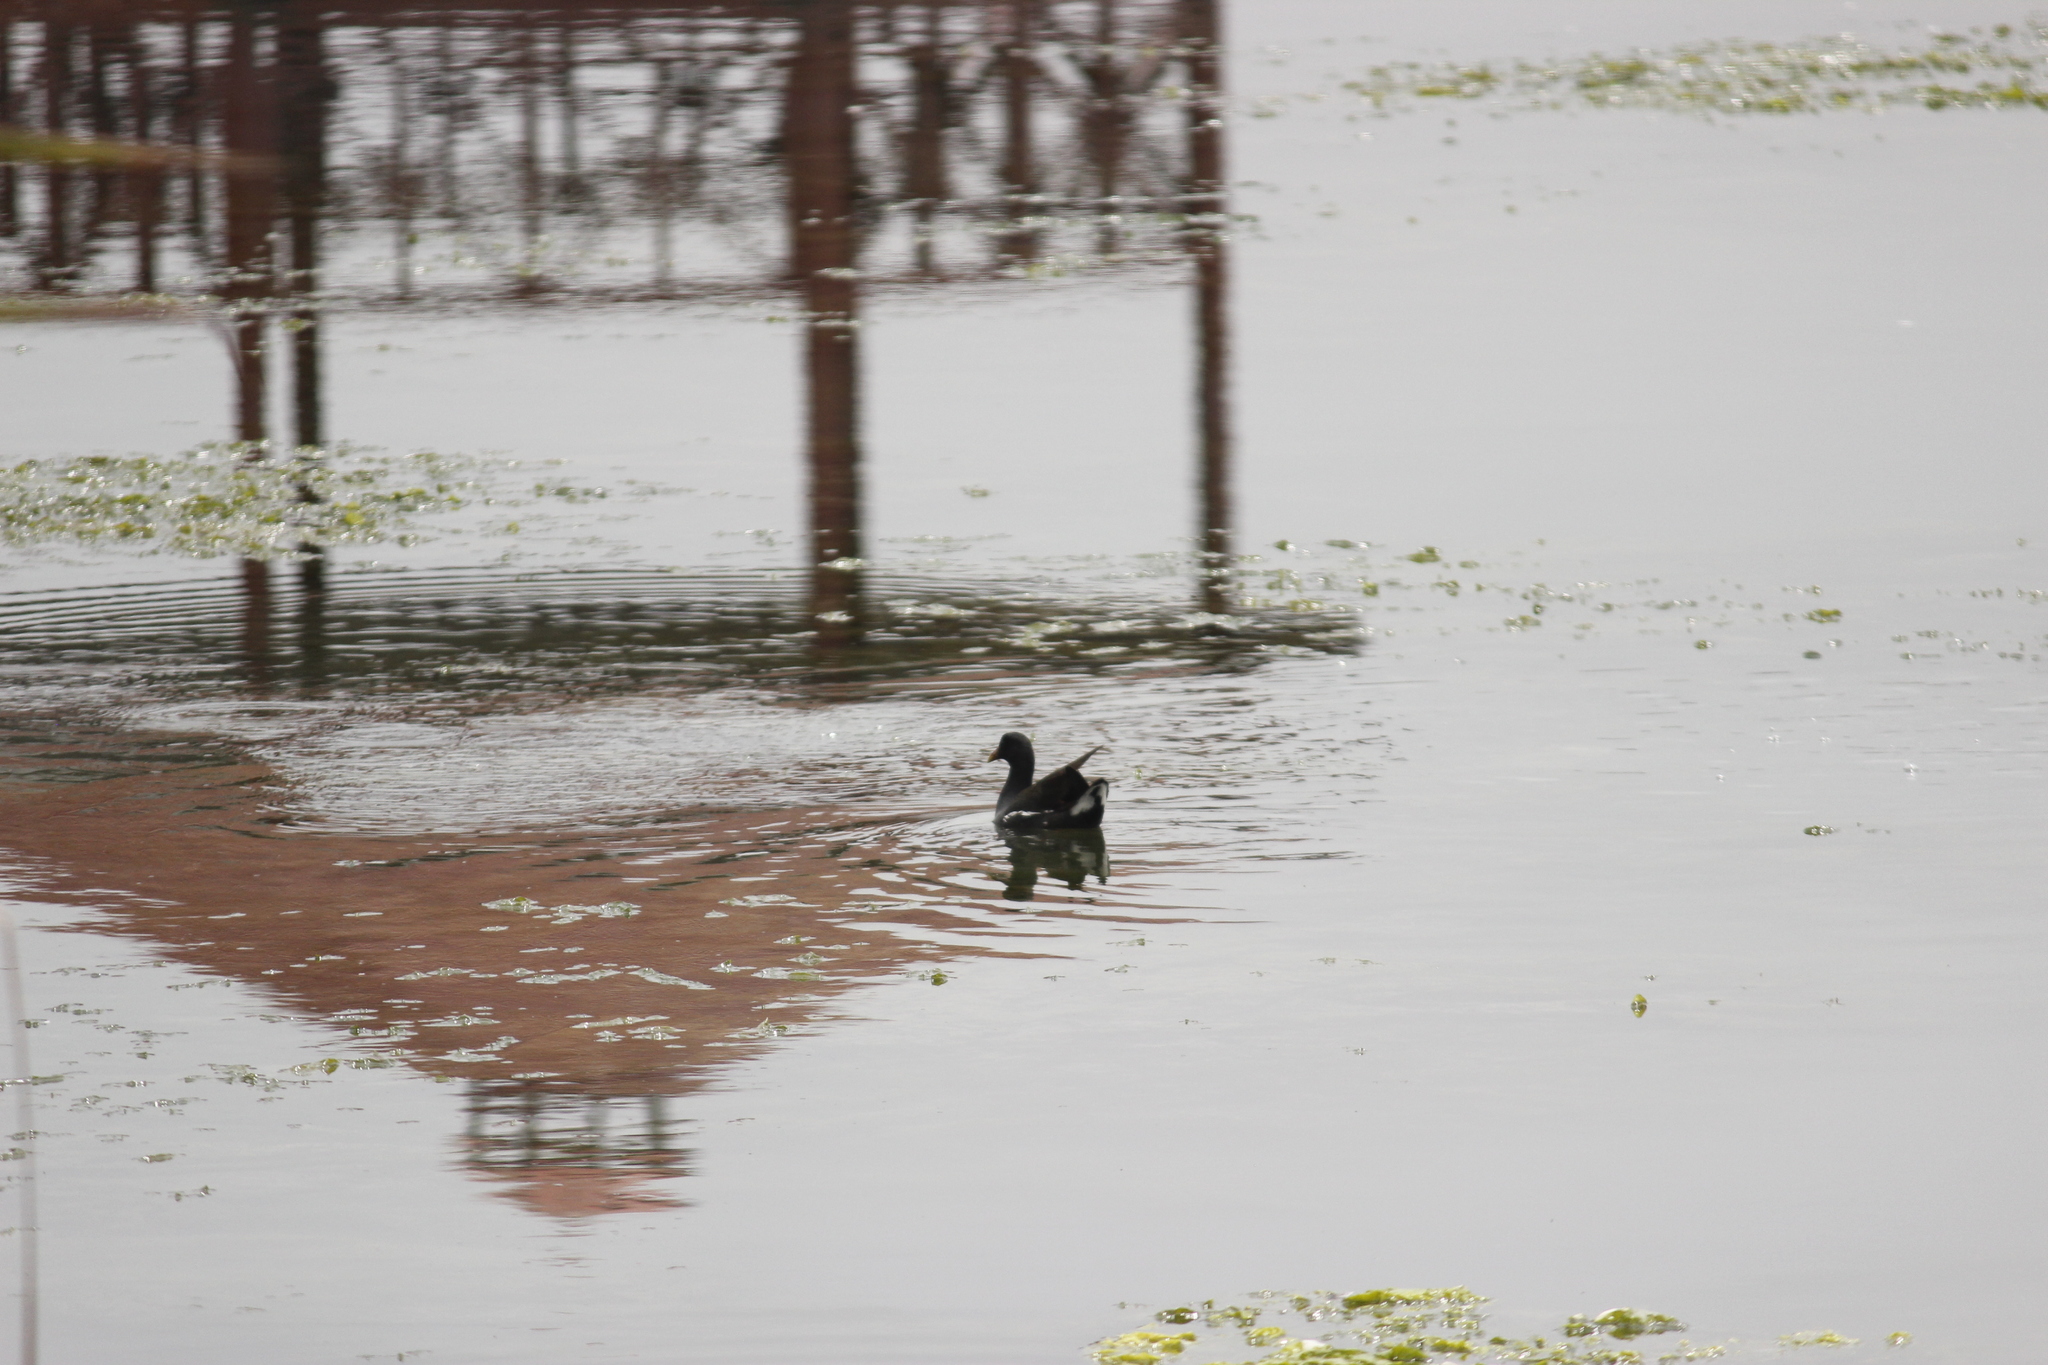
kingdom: Animalia
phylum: Chordata
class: Aves
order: Gruiformes
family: Rallidae
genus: Gallinula
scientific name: Gallinula chloropus
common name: Common moorhen
